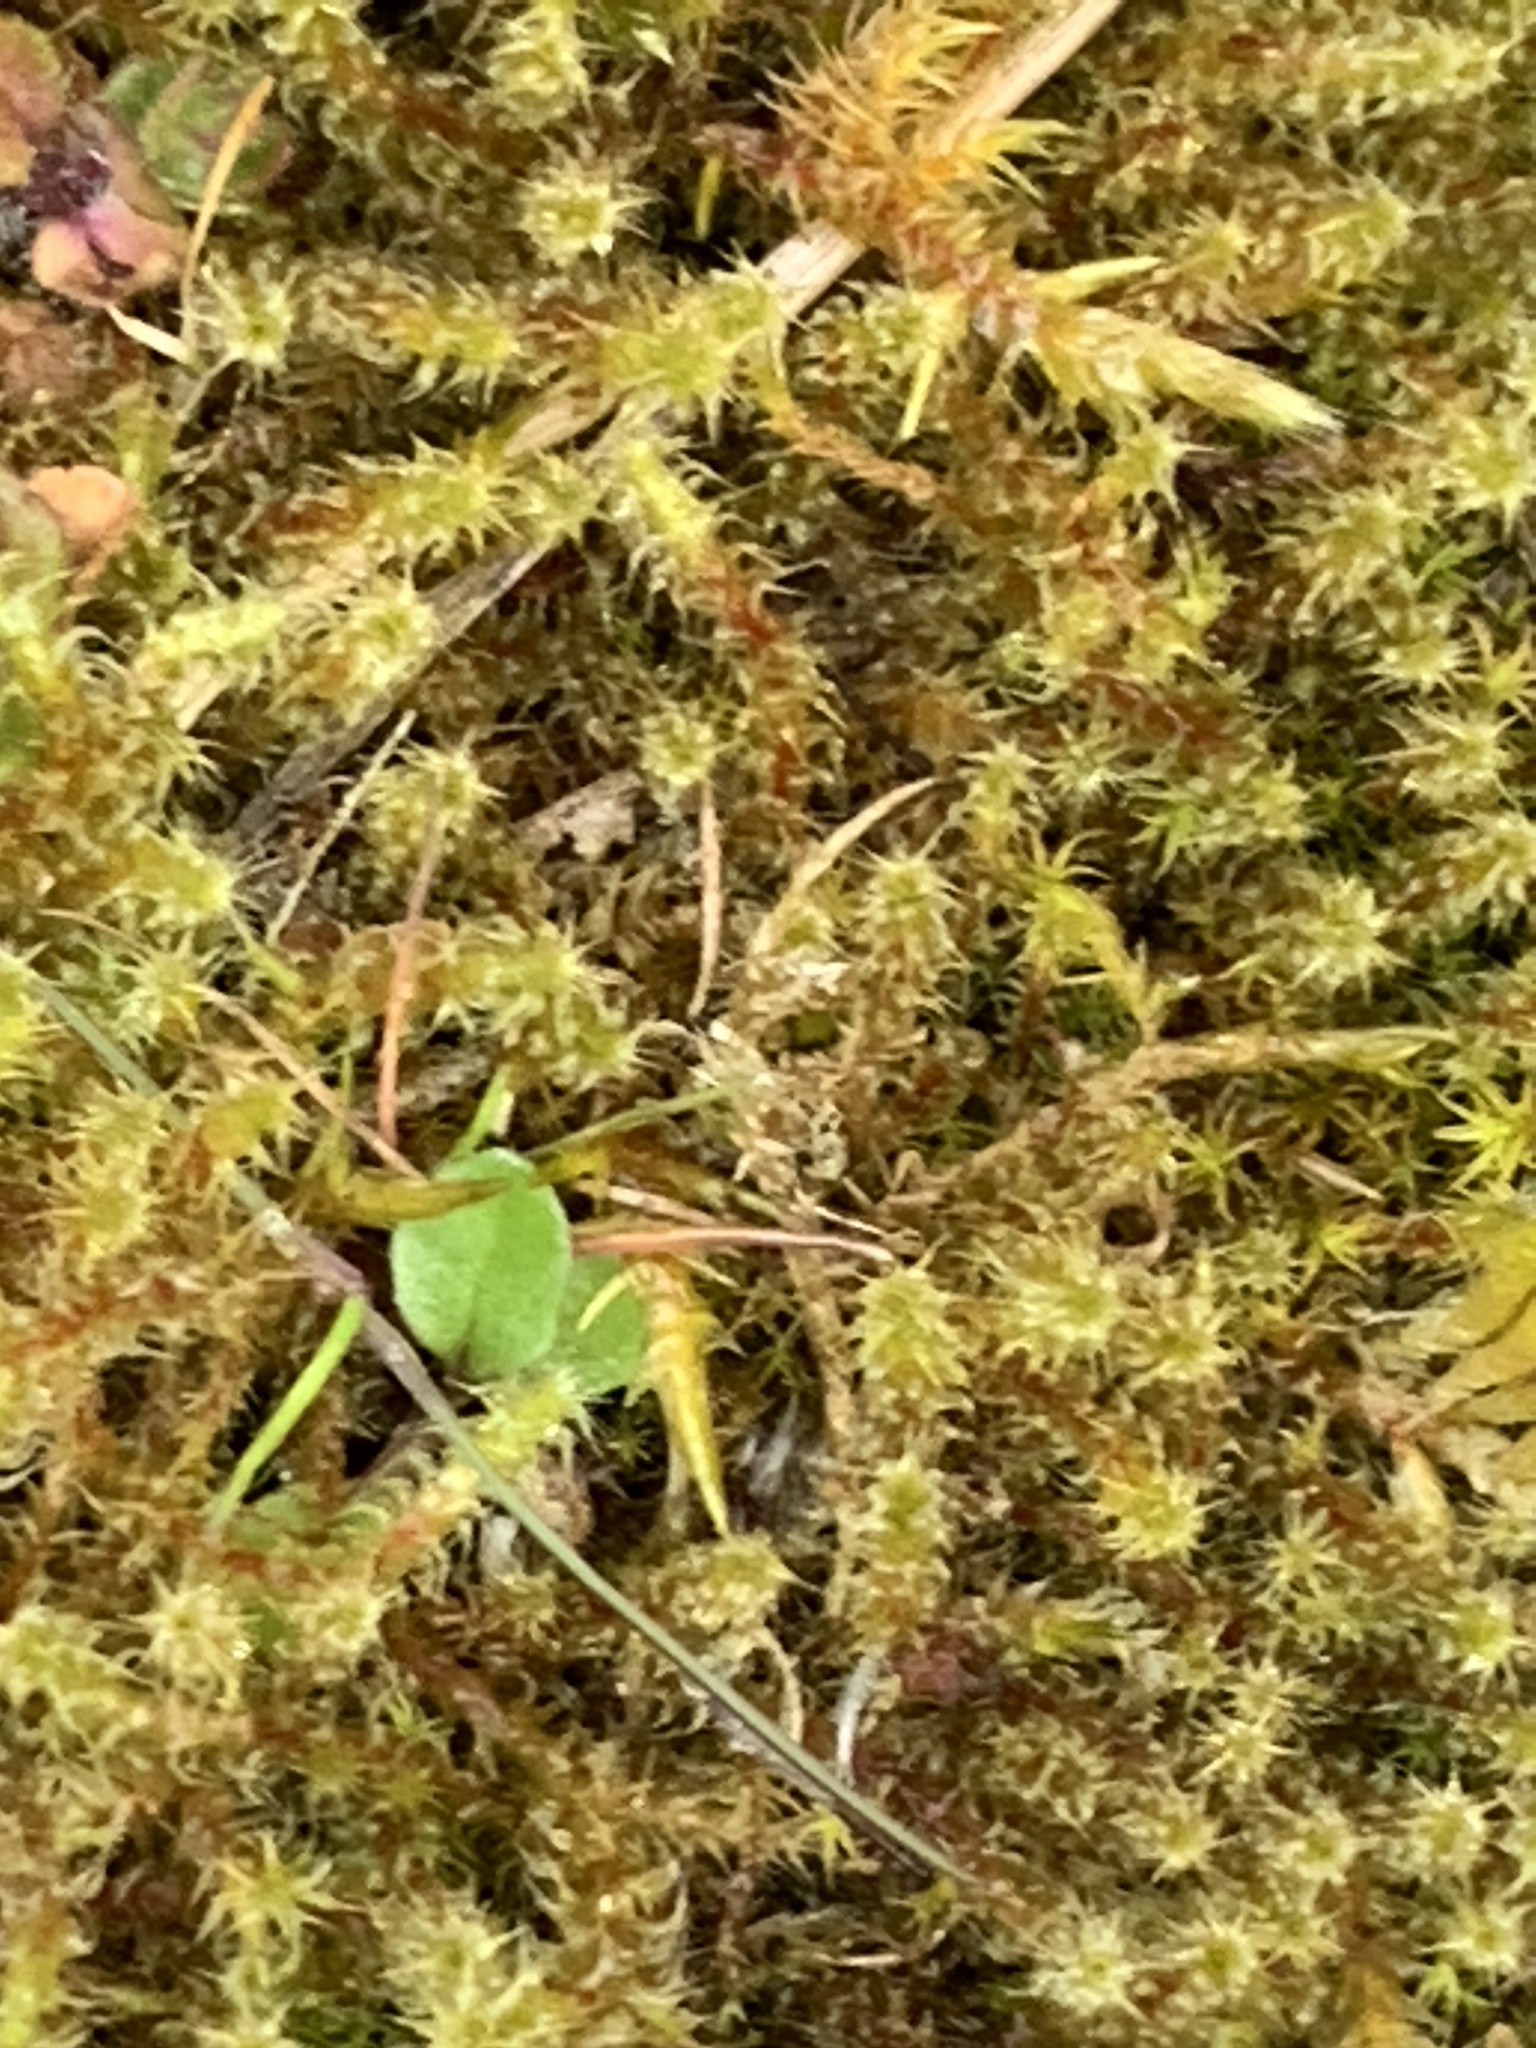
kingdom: Plantae
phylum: Bryophyta
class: Bryopsida
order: Hypnales
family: Hylocomiaceae
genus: Rhytidiadelphus
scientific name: Rhytidiadelphus squarrosus
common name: Springy turf-moss
